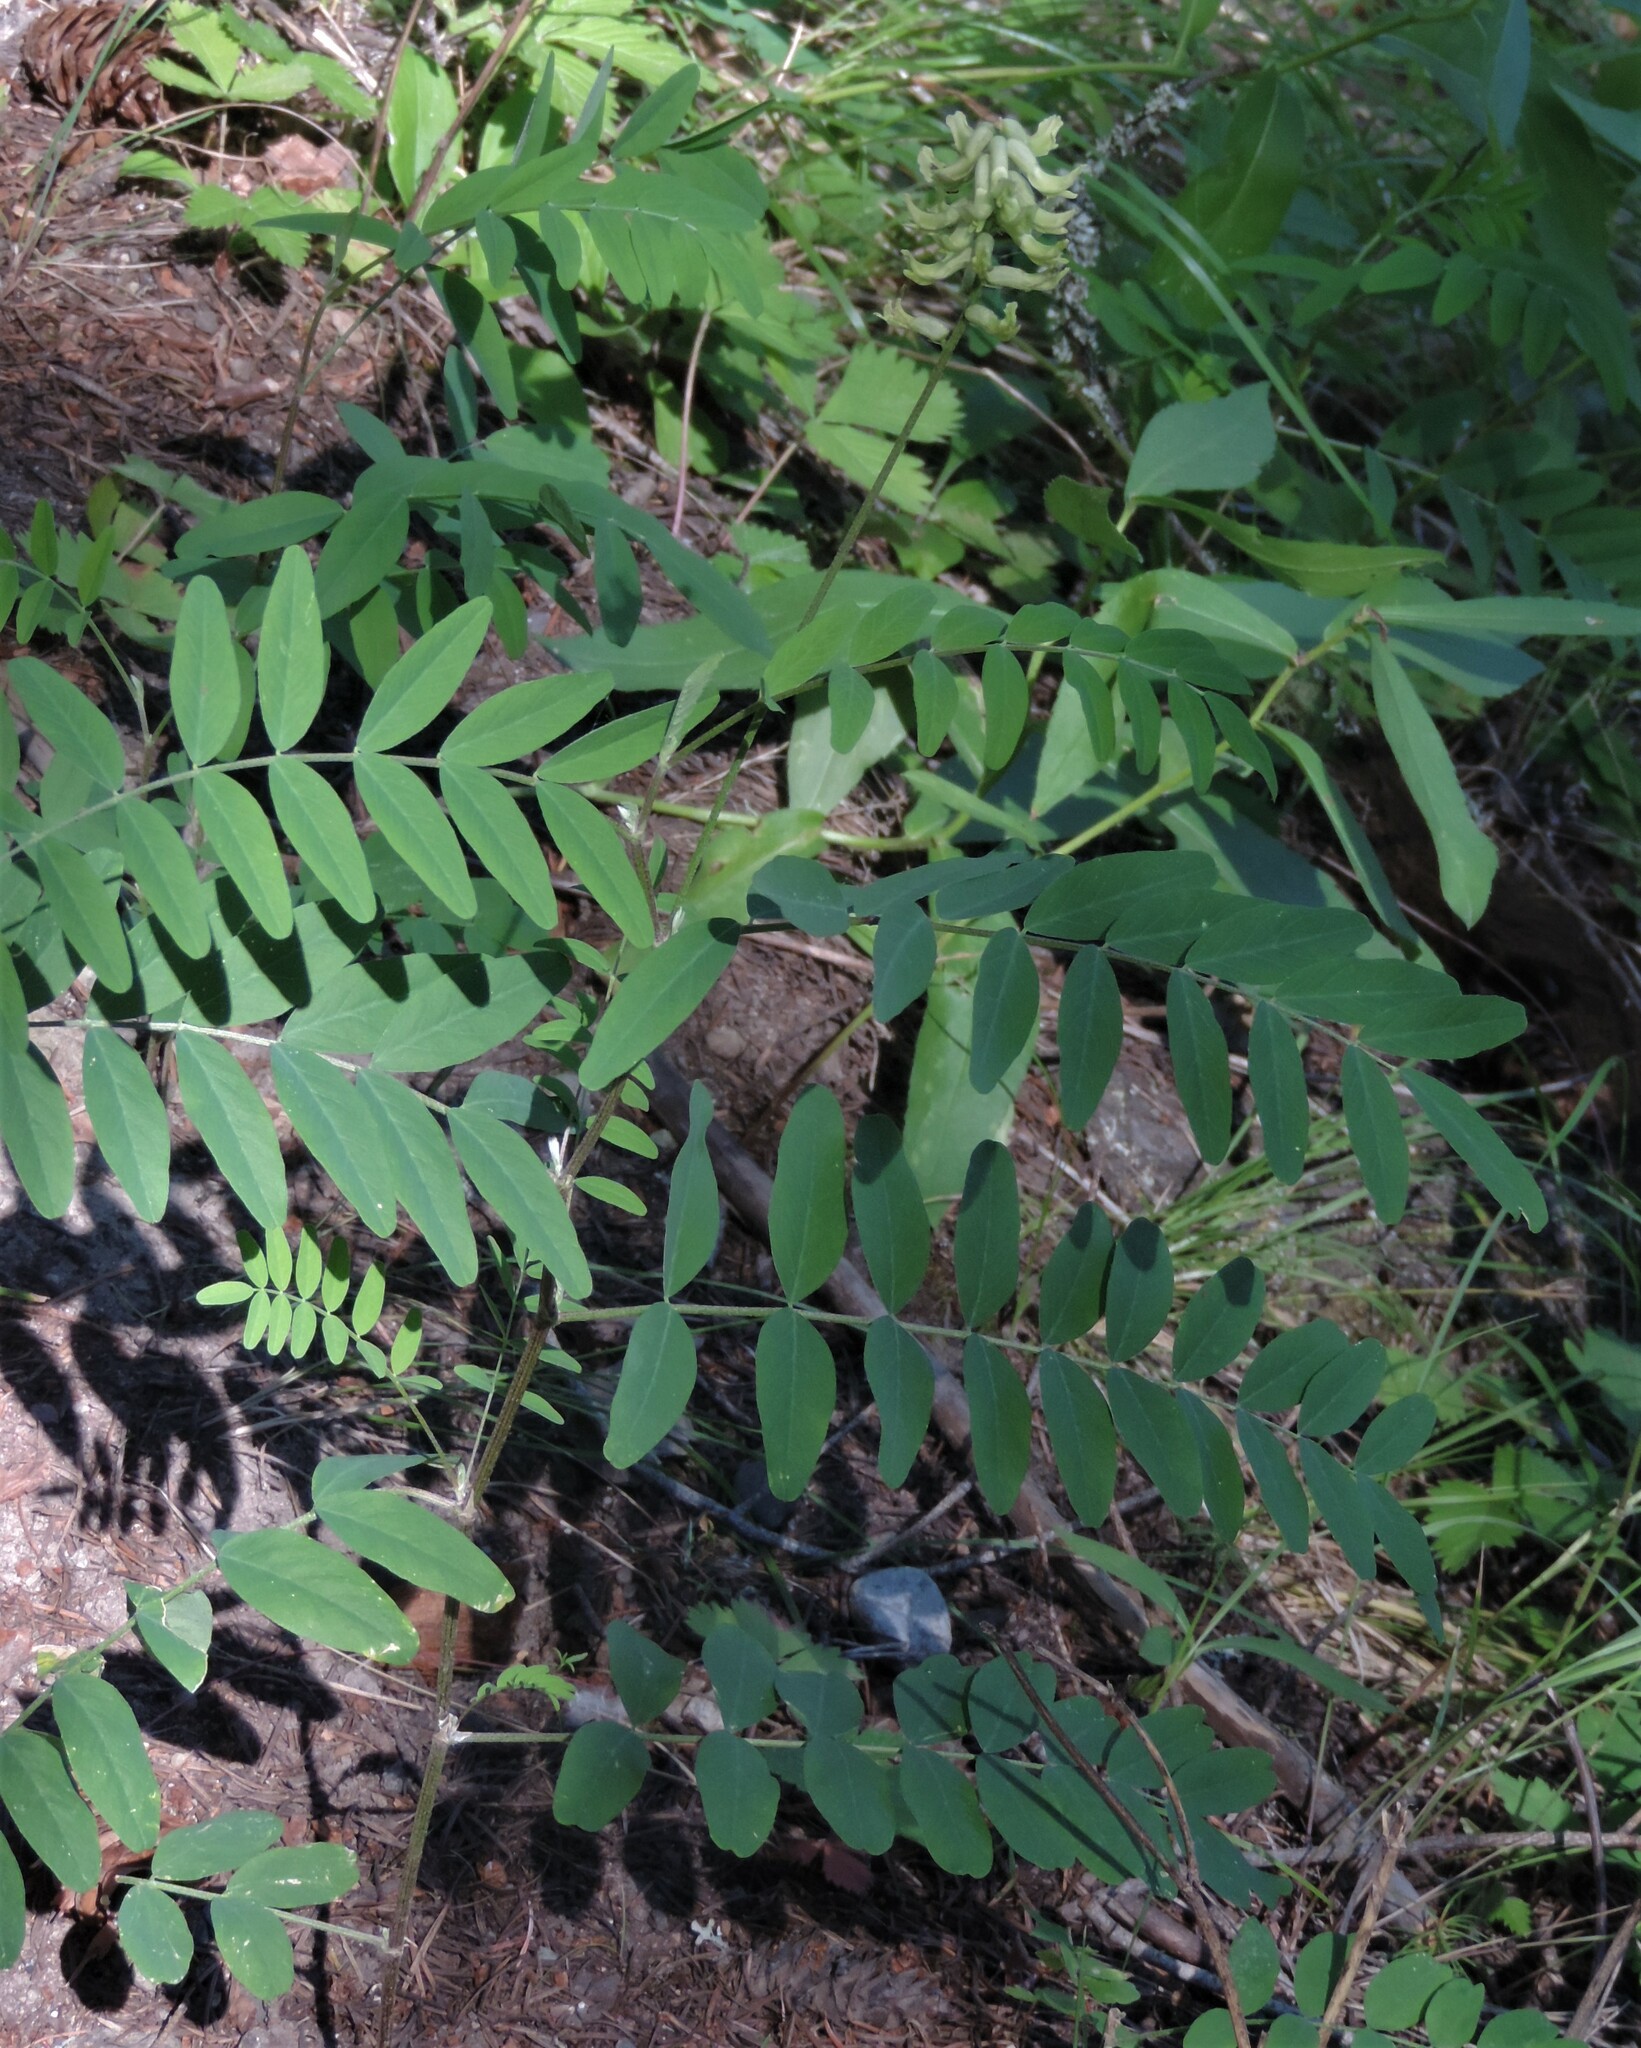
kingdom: Plantae
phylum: Tracheophyta
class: Magnoliopsida
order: Fabales
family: Fabaceae
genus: Astragalus
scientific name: Astragalus canadensis
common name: Canada milk-vetch
